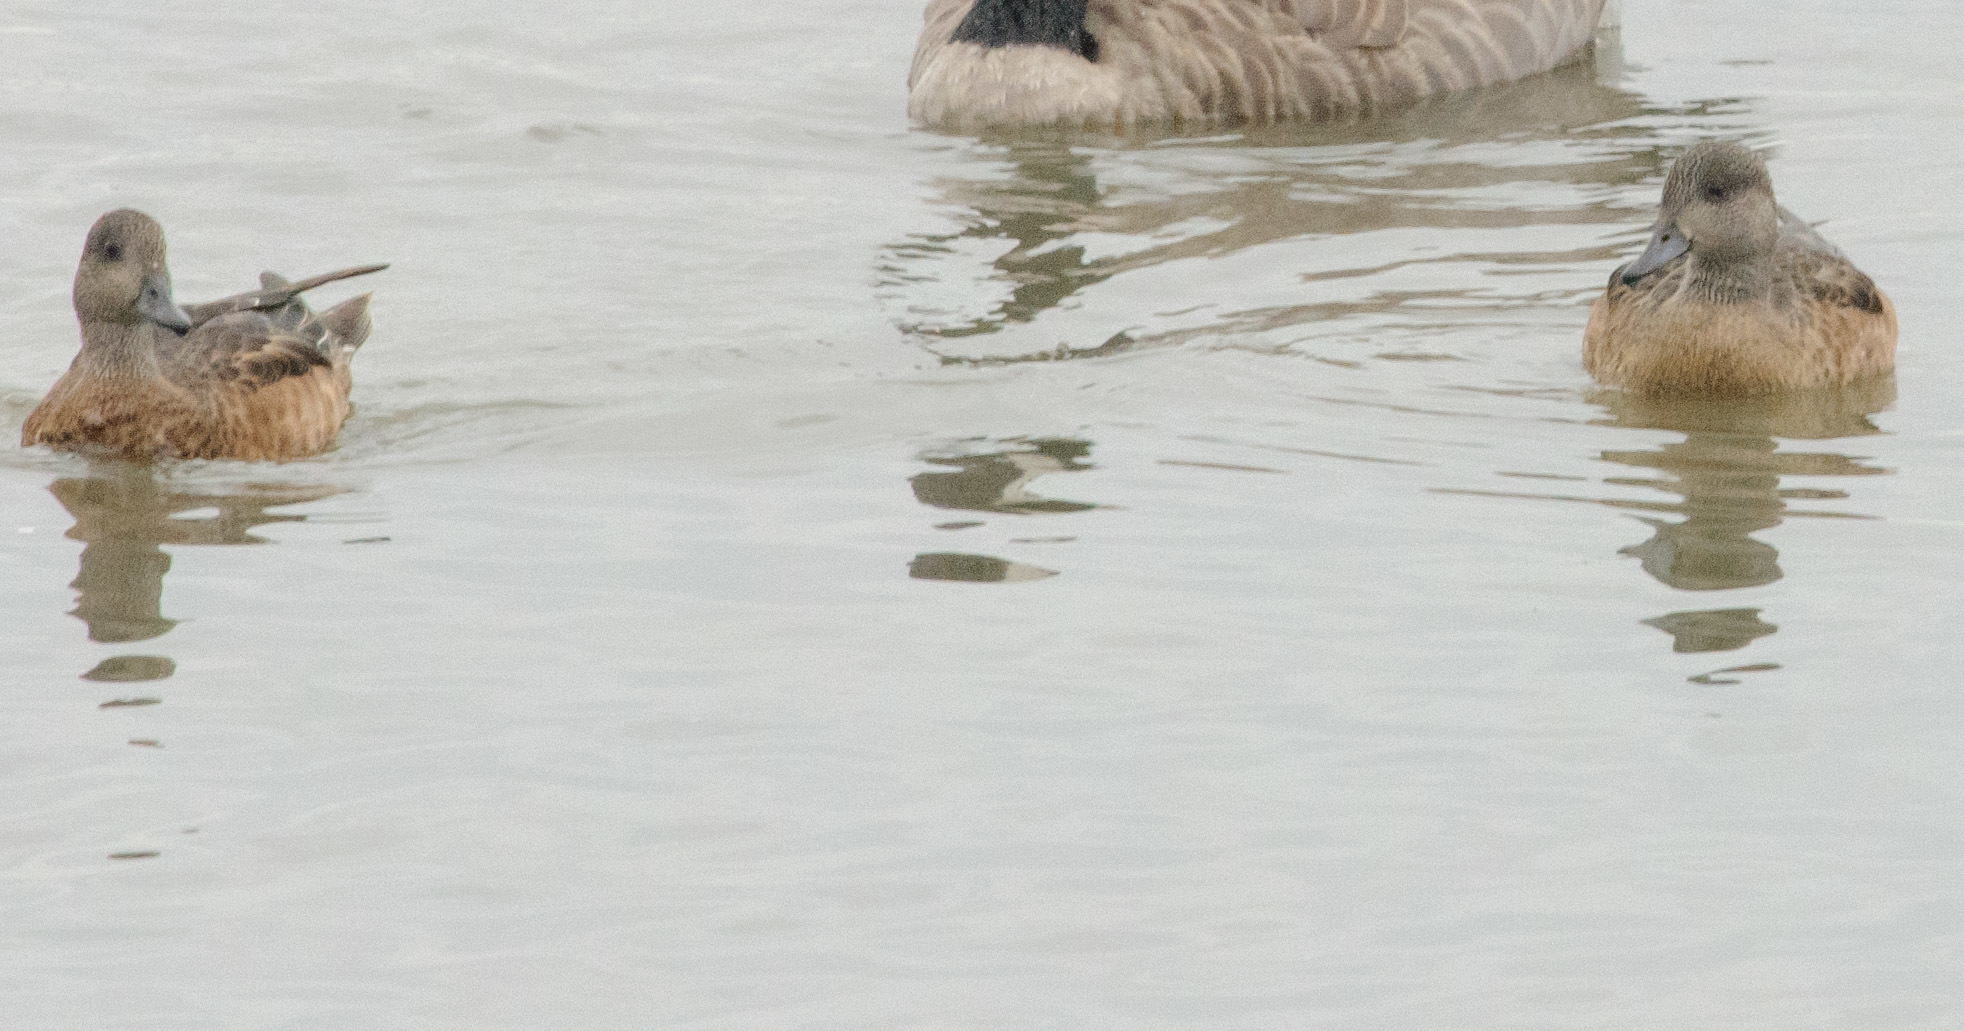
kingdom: Animalia
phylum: Chordata
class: Aves
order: Anseriformes
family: Anatidae
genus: Mareca
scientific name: Mareca americana
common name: American wigeon
